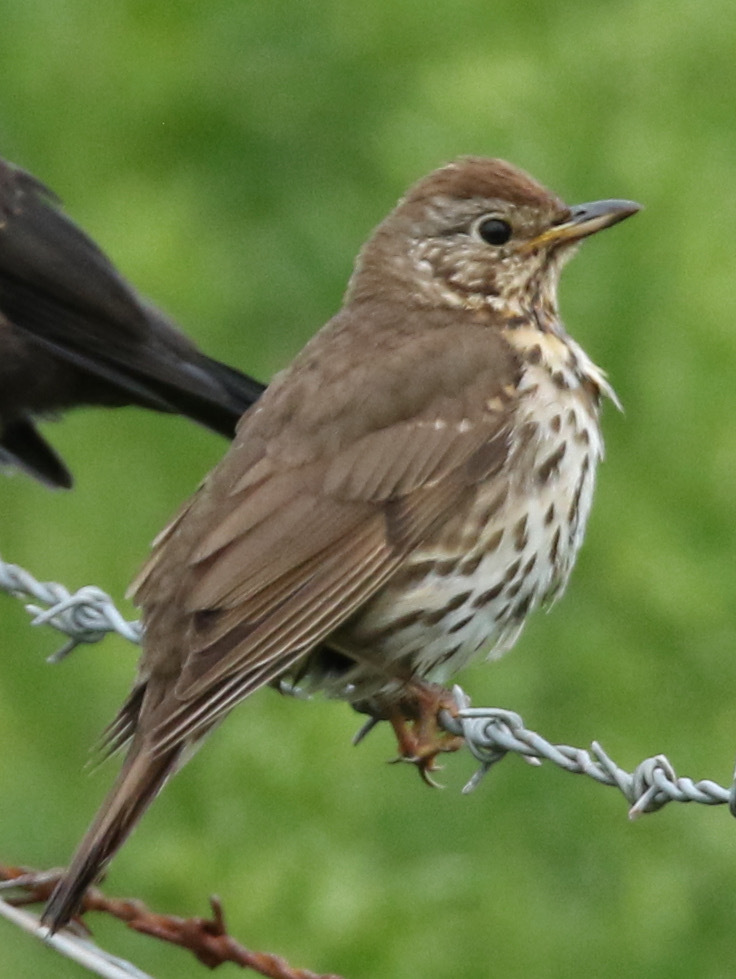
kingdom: Animalia
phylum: Chordata
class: Aves
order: Passeriformes
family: Turdidae
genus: Turdus
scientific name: Turdus philomelos
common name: Song thrush
